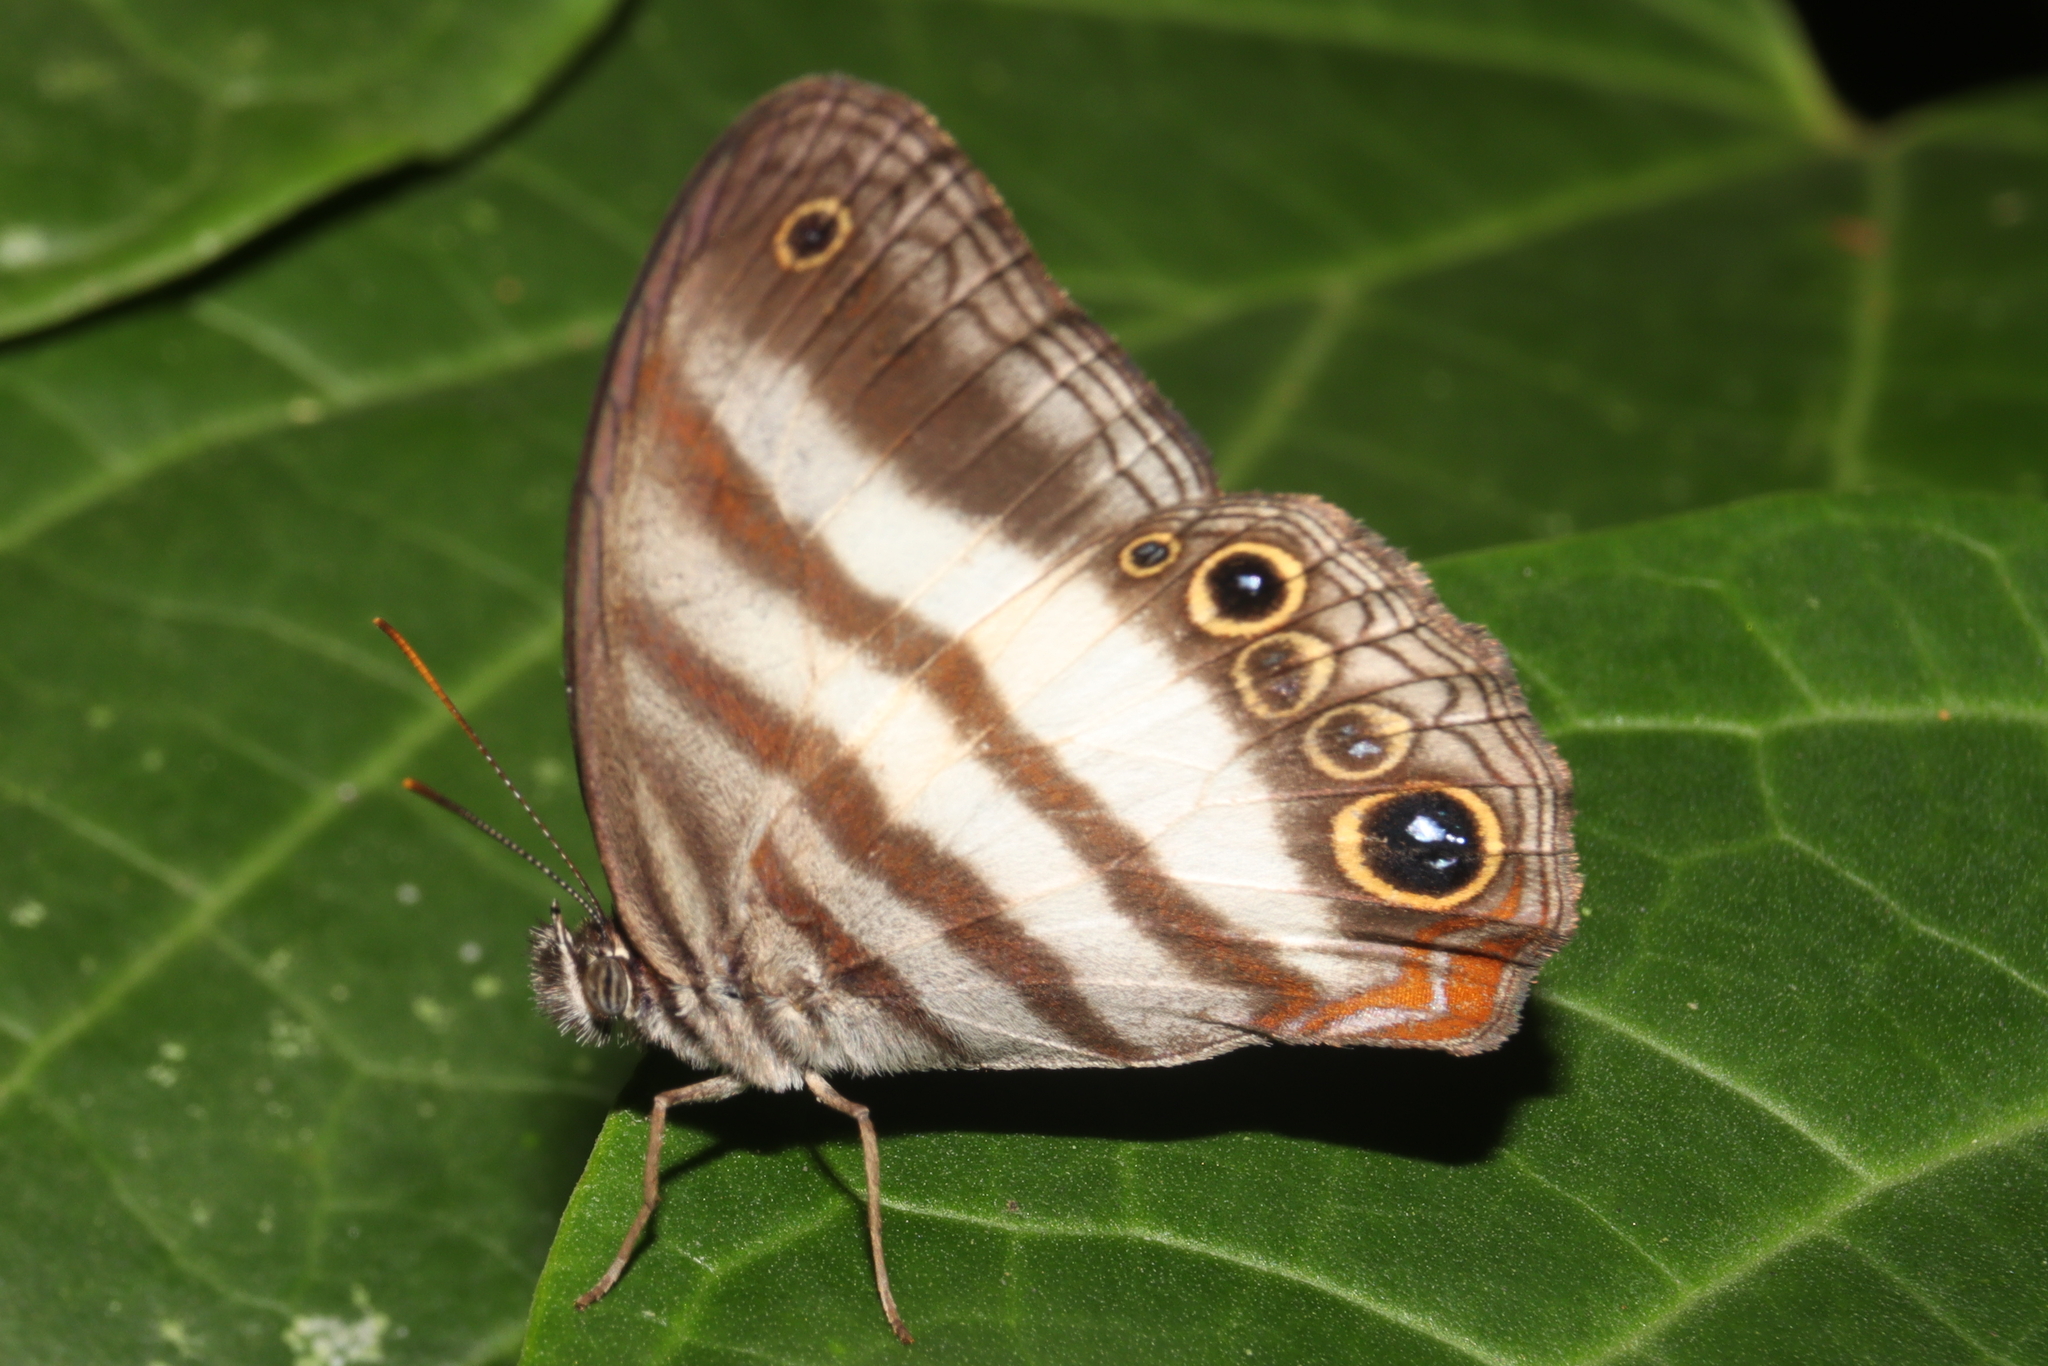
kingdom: Animalia
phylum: Arthropoda
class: Insecta
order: Lepidoptera
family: Nymphalidae
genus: Pareuptychia
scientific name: Pareuptychia hesione
